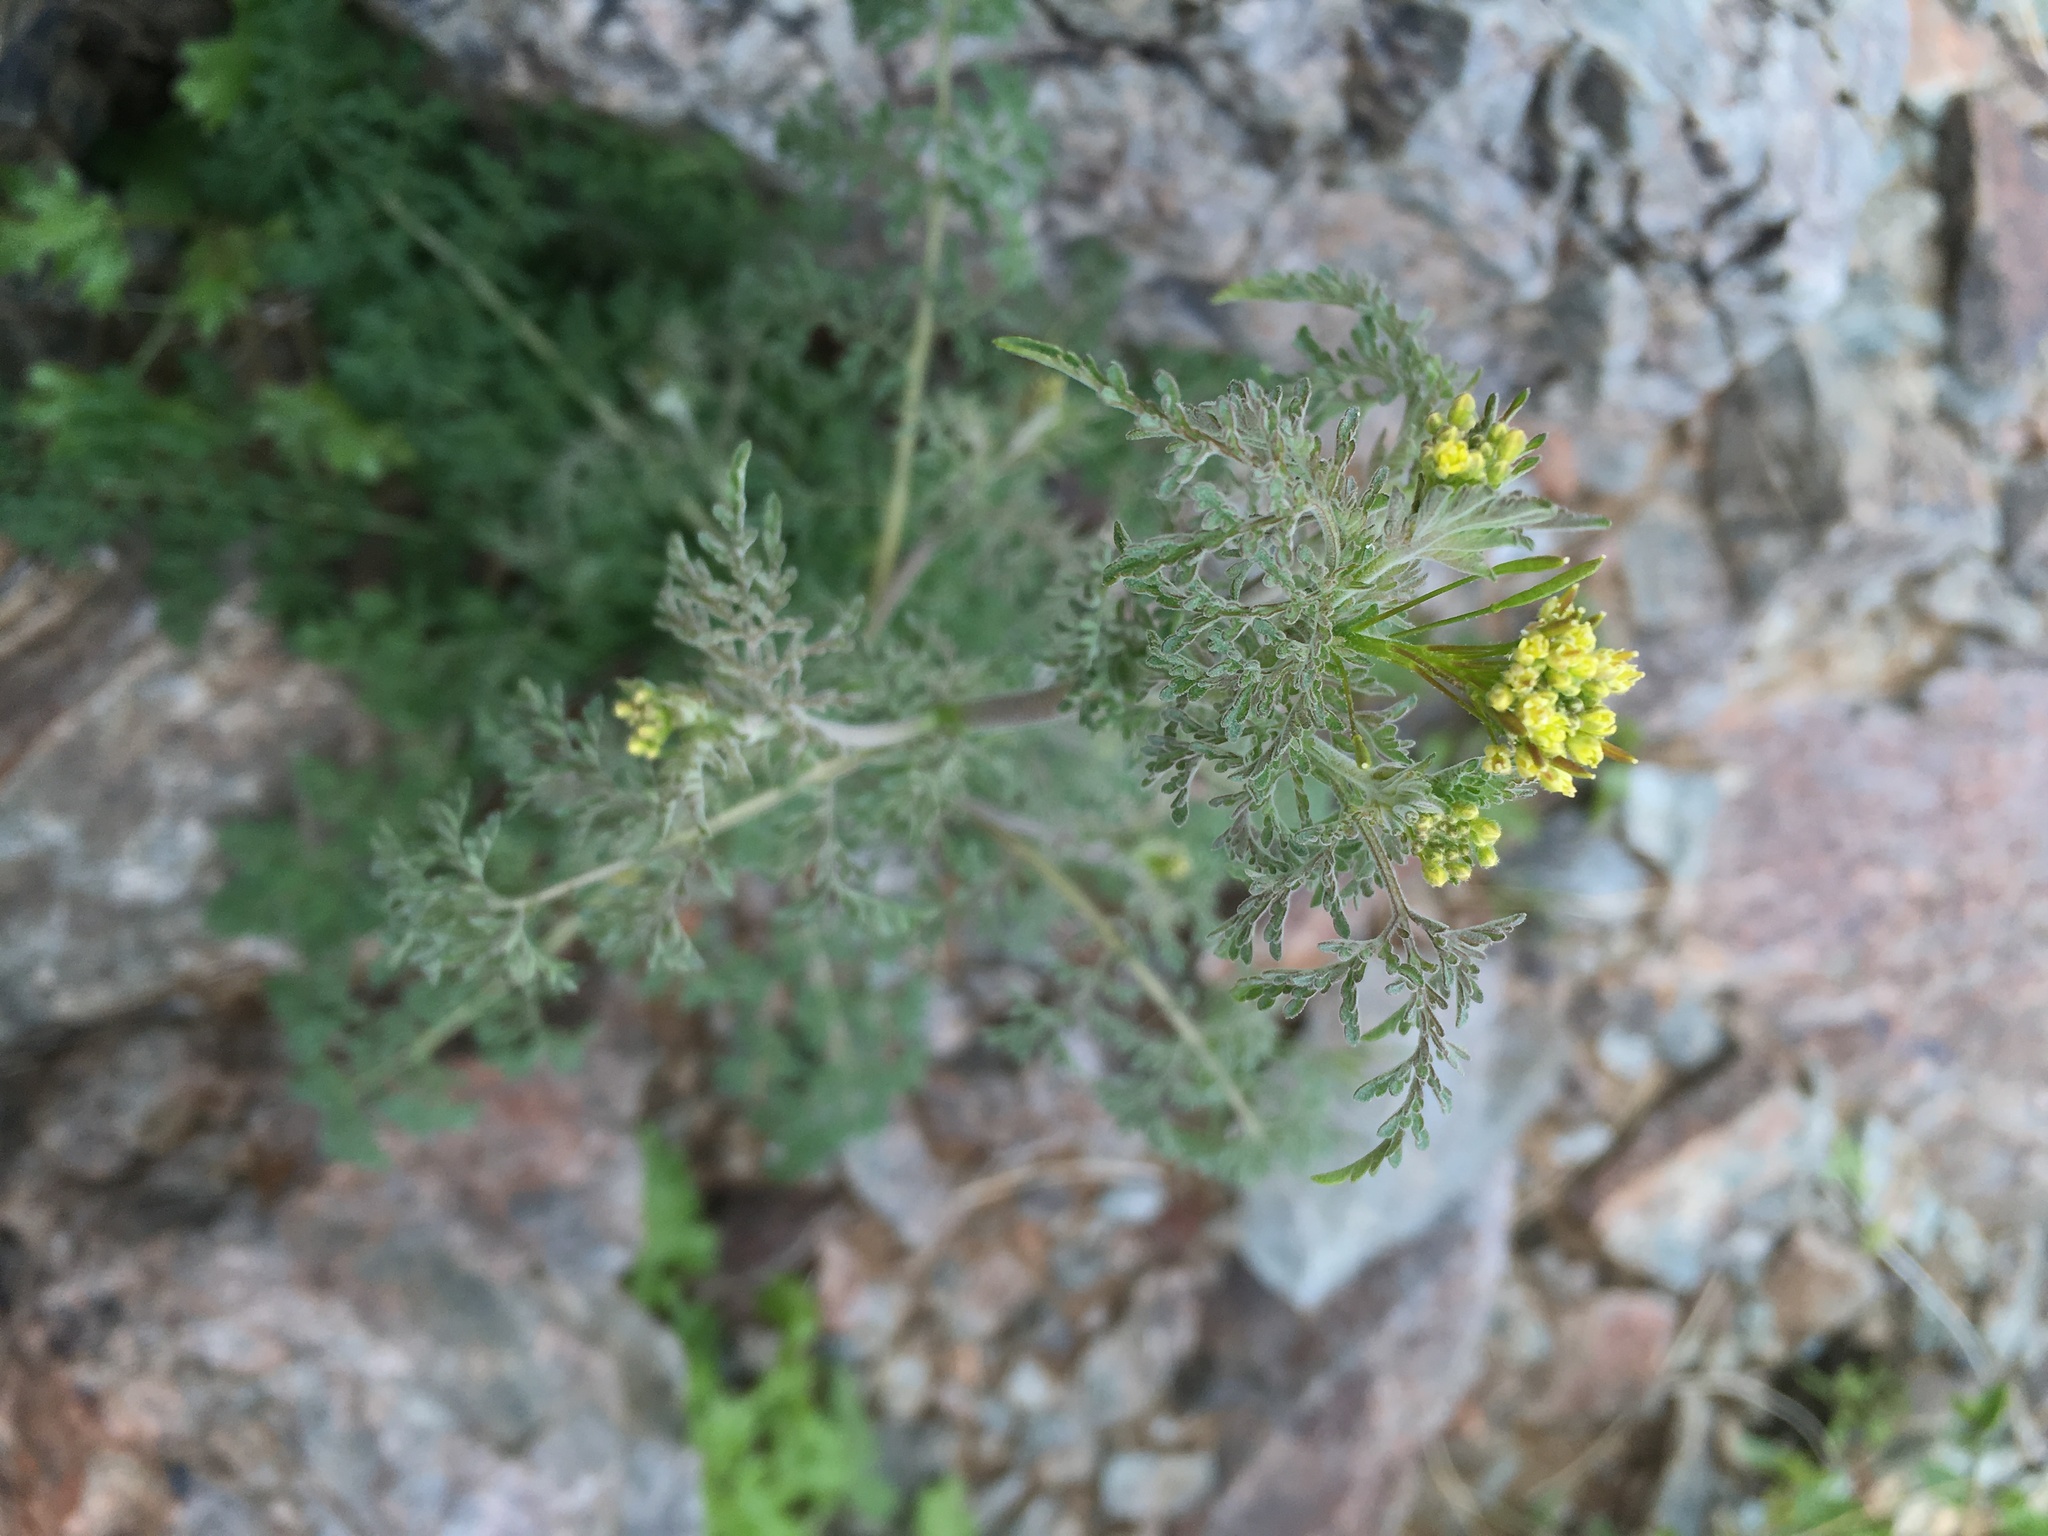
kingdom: Plantae
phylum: Tracheophyta
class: Magnoliopsida
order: Brassicales
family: Brassicaceae
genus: Descurainia
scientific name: Descurainia pinnata
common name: Western tansy mustard
